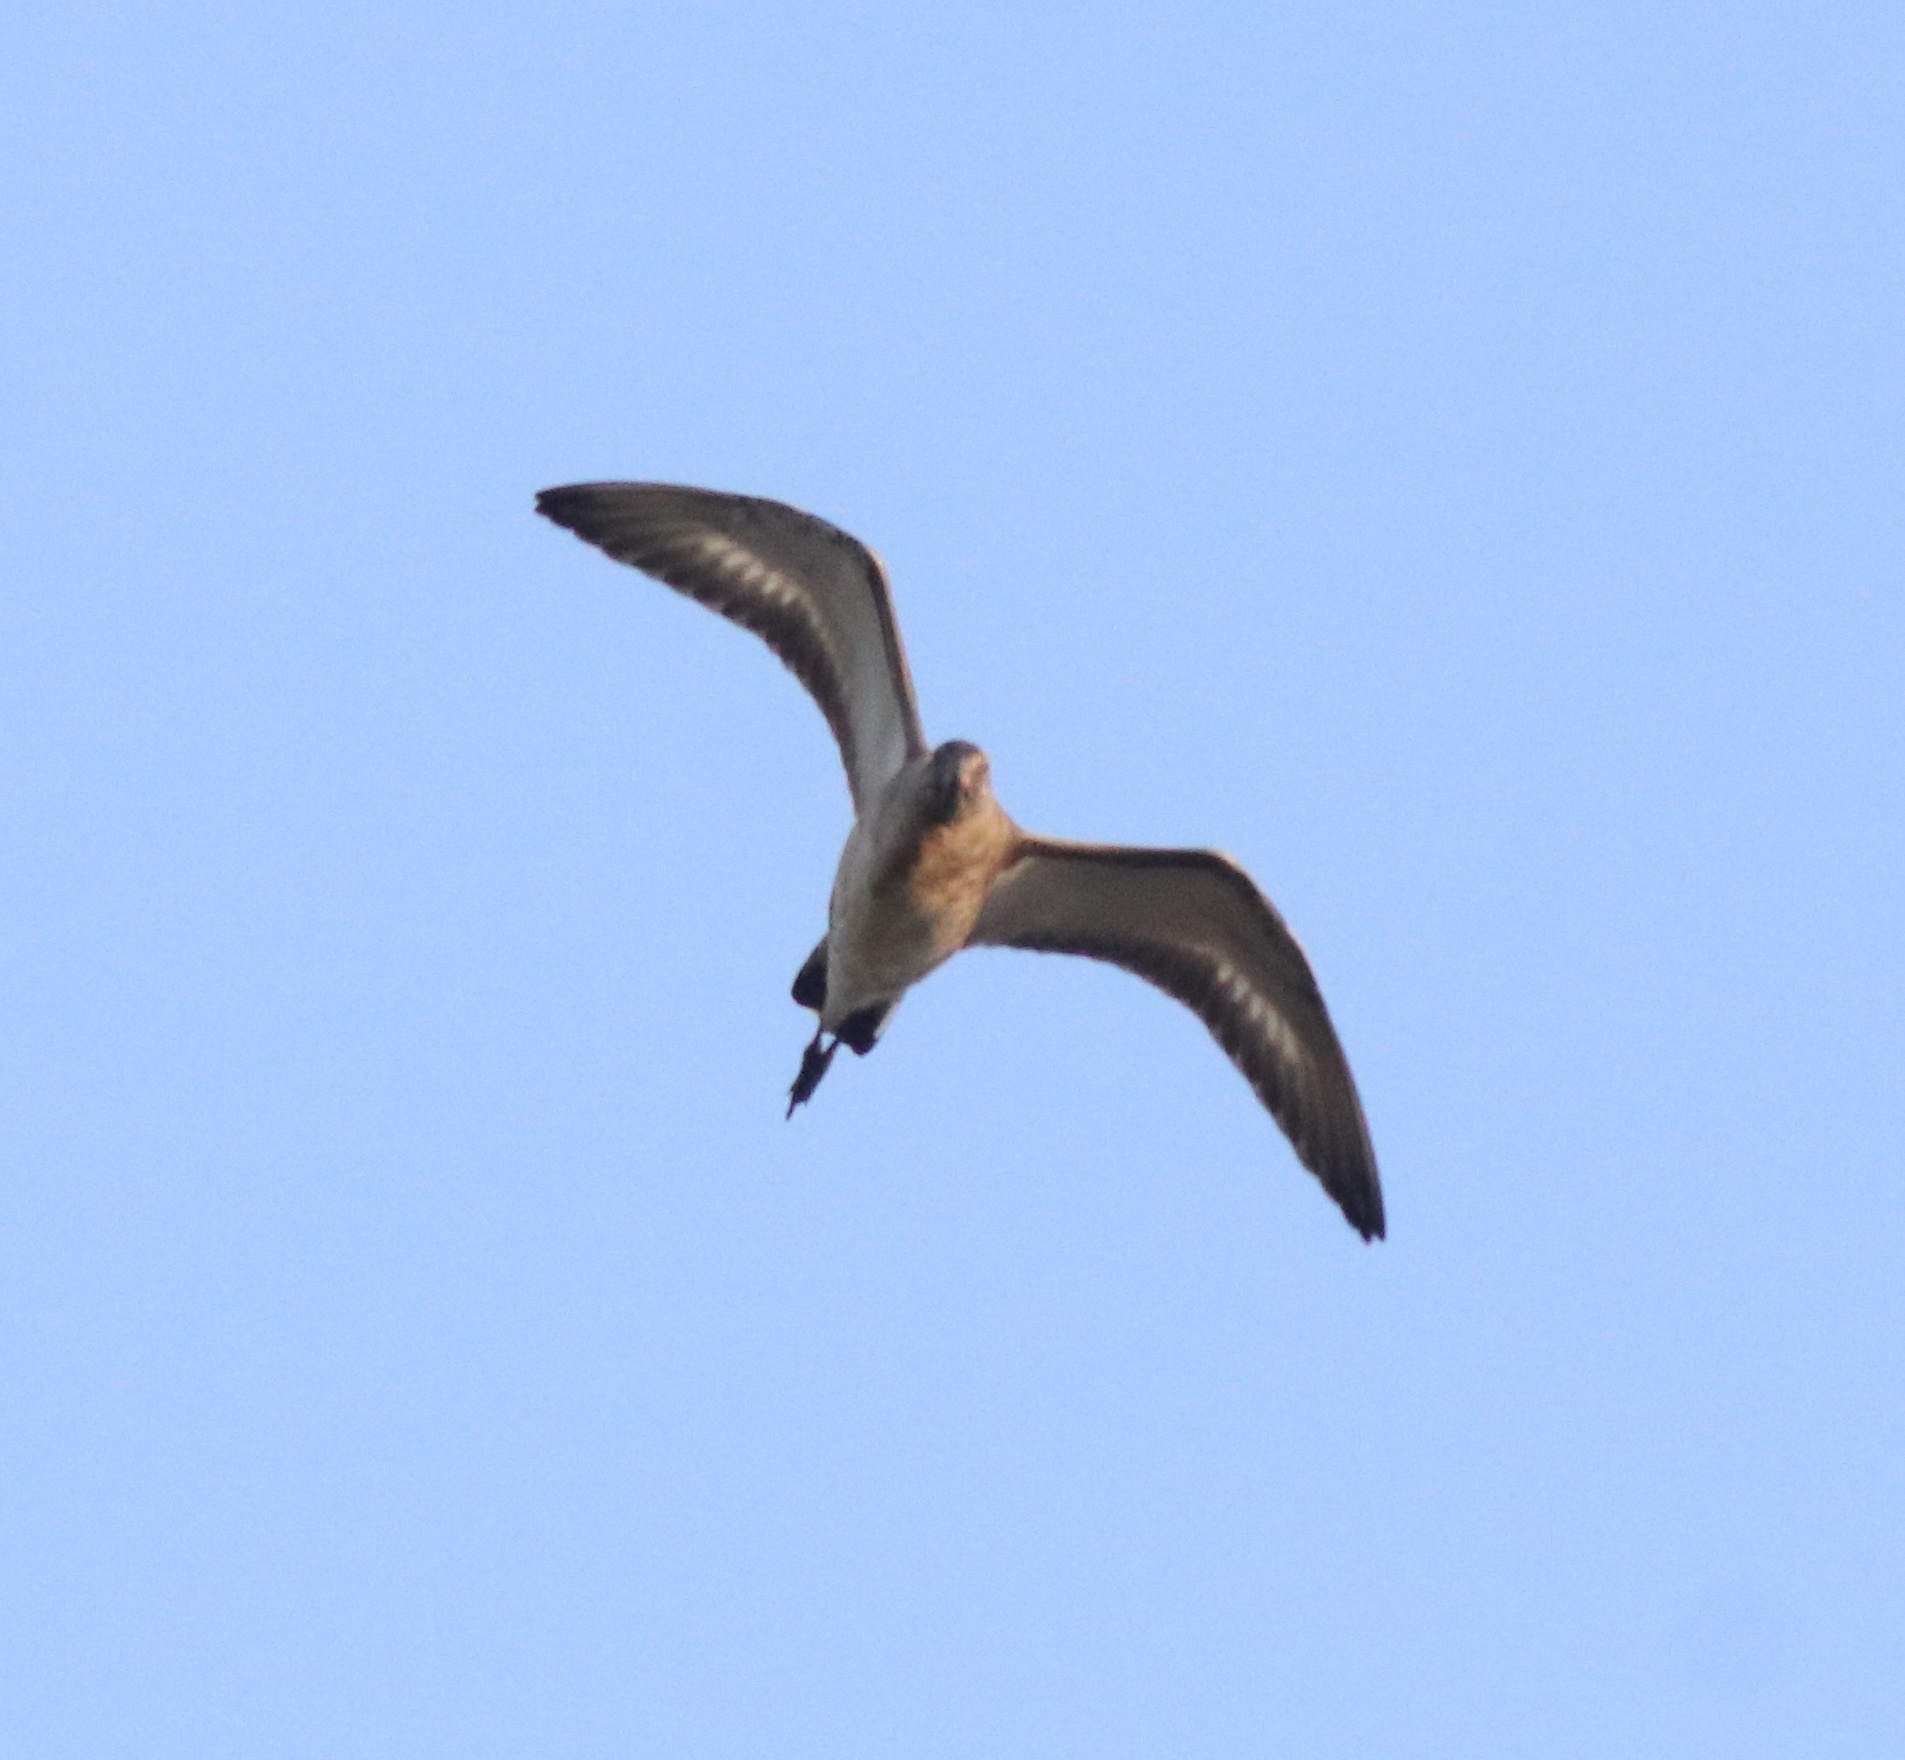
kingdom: Animalia
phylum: Chordata
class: Aves
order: Charadriiformes
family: Scolopacidae
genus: Limosa
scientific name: Limosa limosa
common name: Black-tailed godwit
